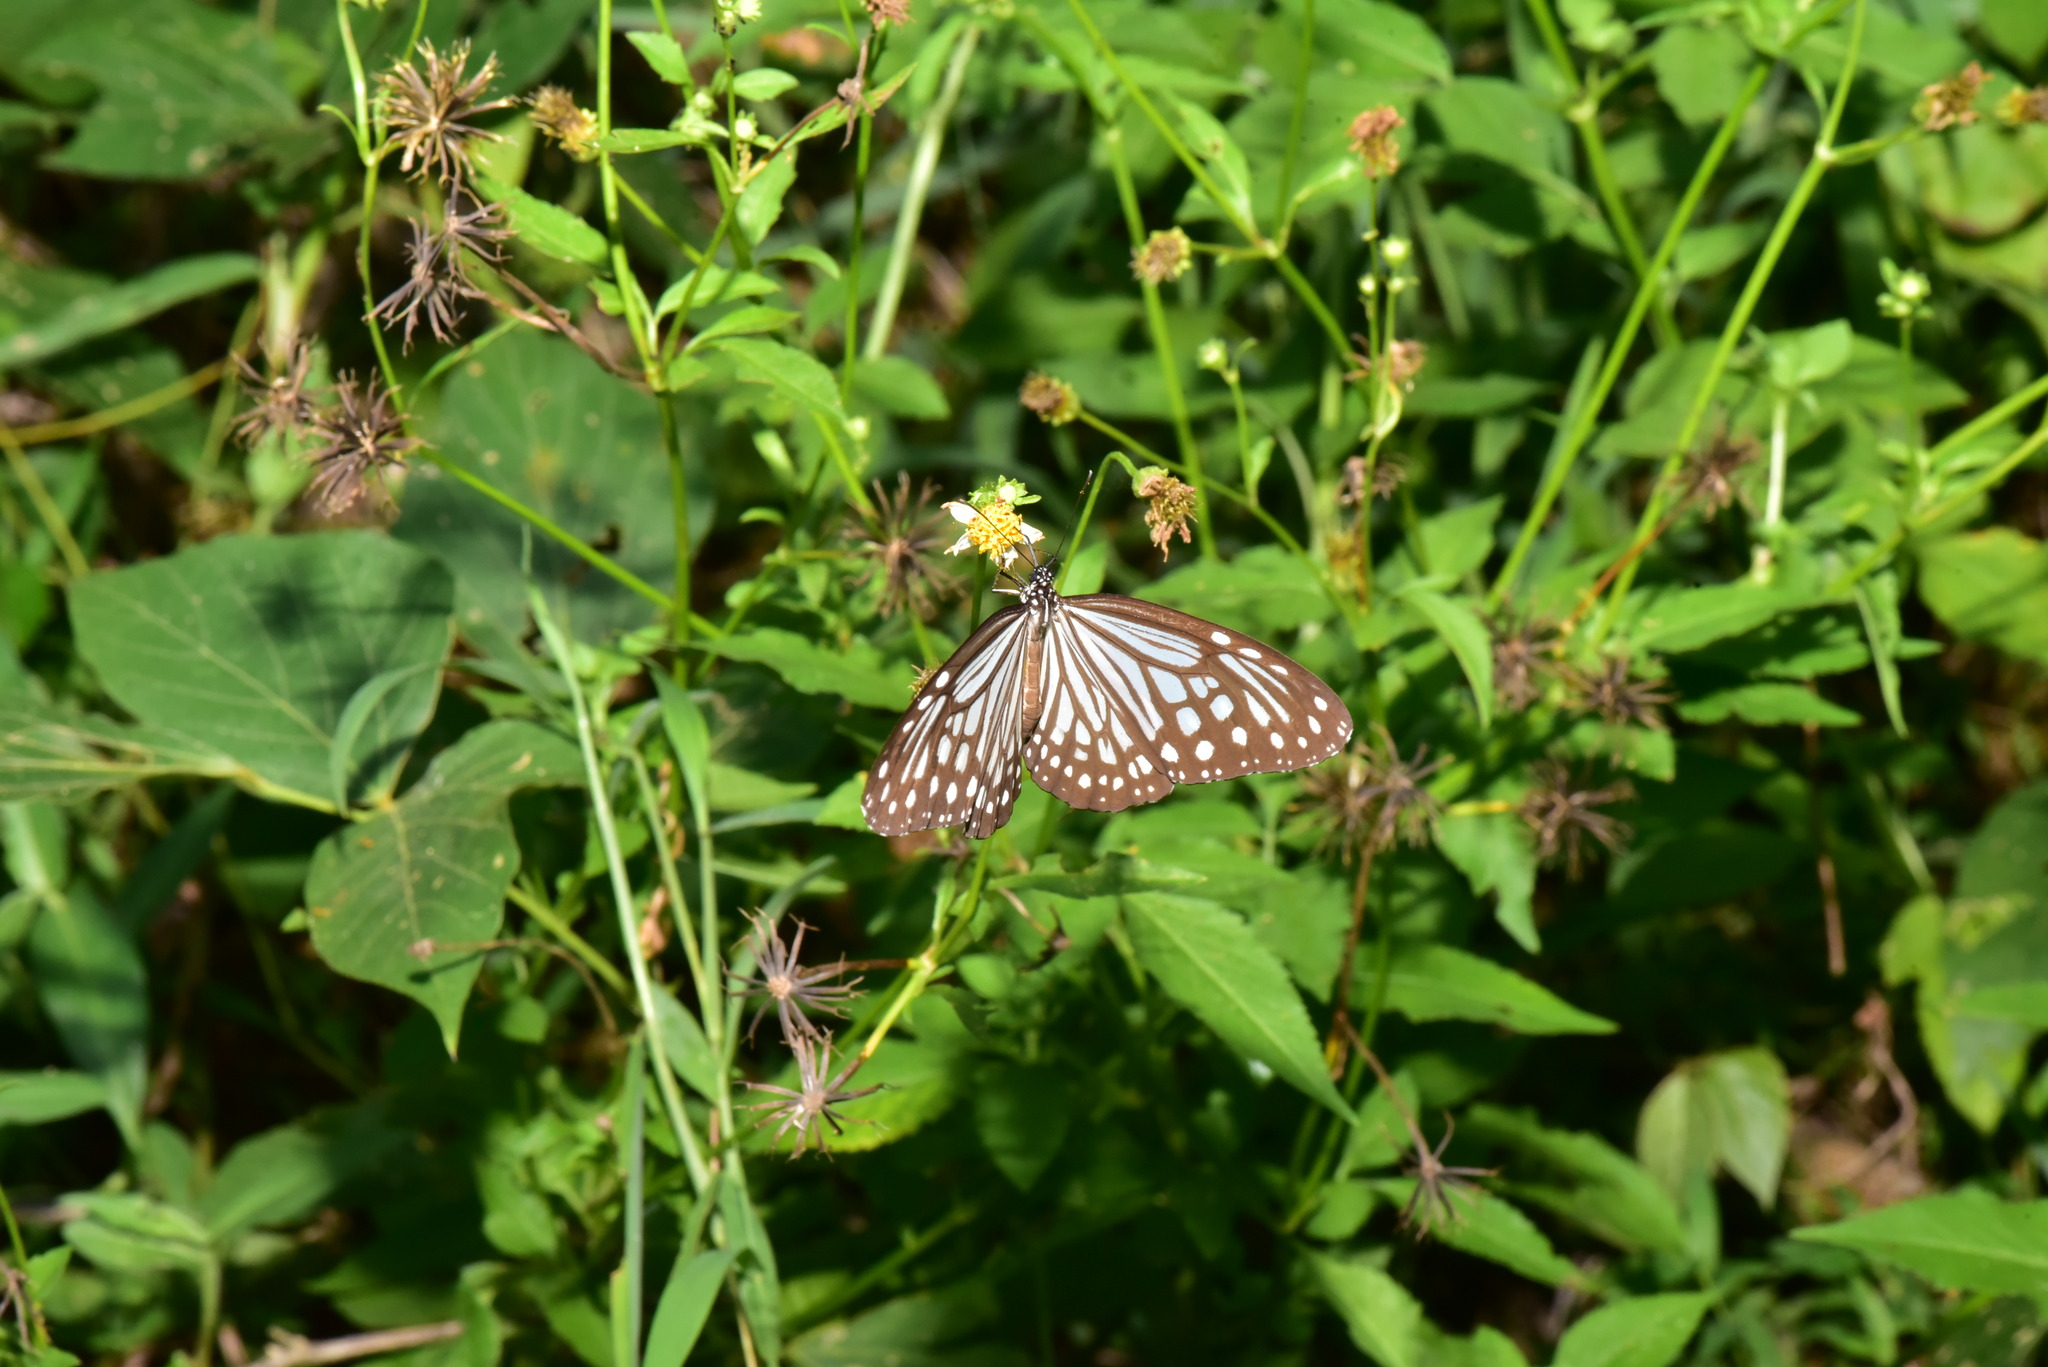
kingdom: Animalia
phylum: Arthropoda
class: Insecta
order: Lepidoptera
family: Nymphalidae
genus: Parantica
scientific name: Parantica aglea
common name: Glassy tiger
